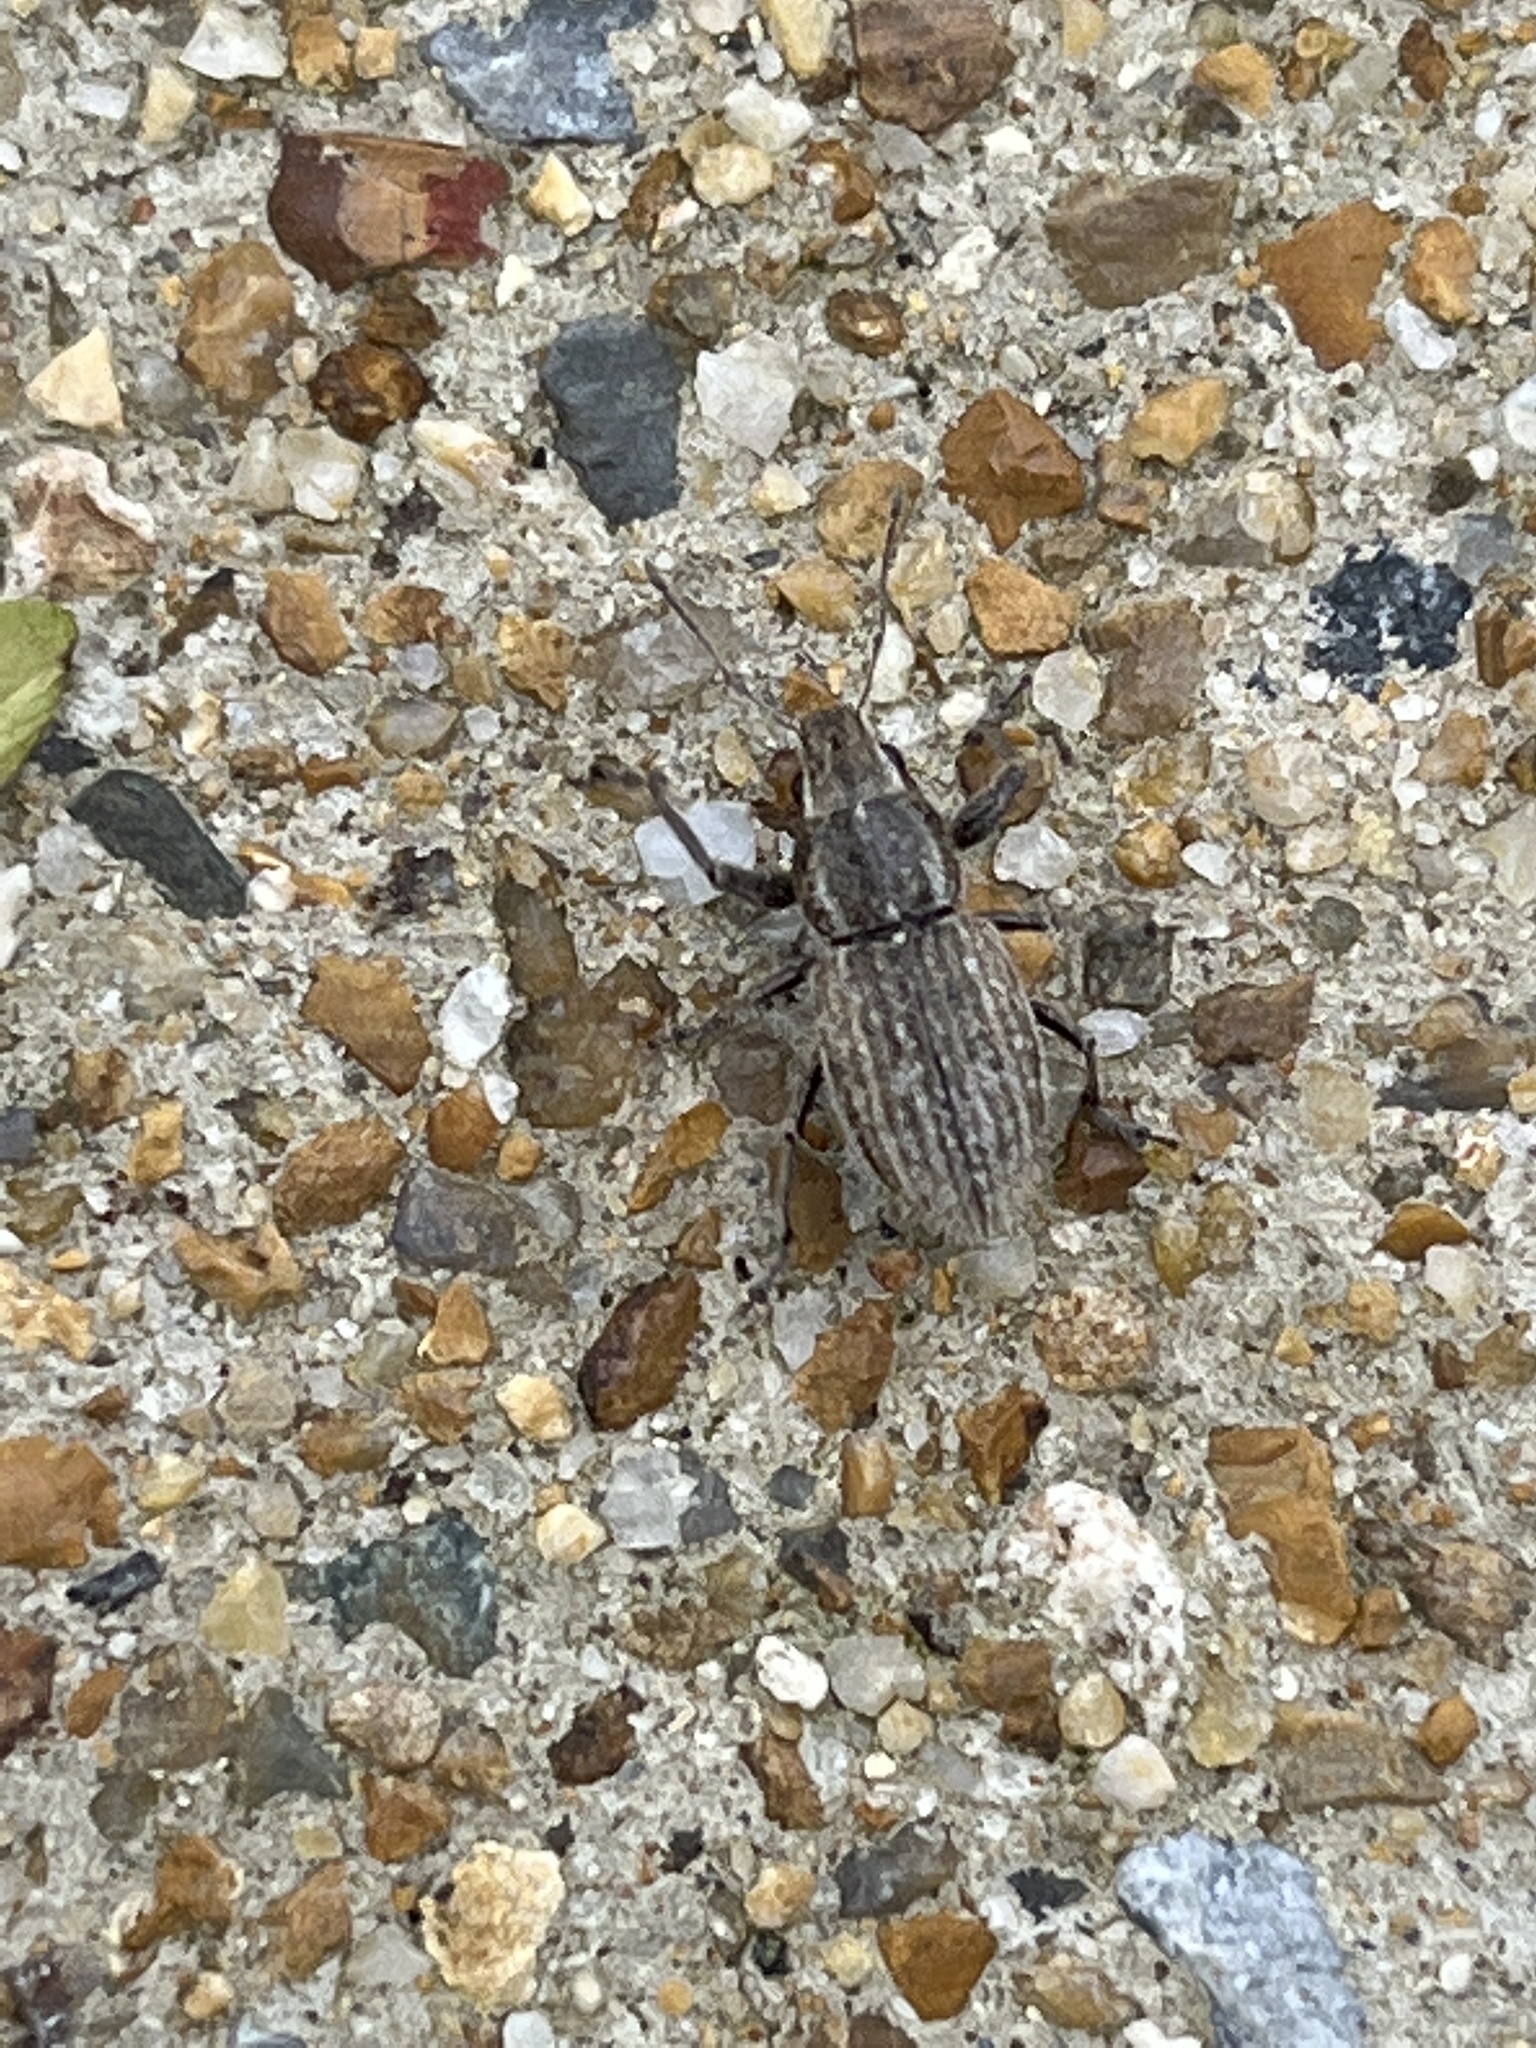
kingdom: Animalia
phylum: Arthropoda
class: Insecta
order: Coleoptera
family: Curculionidae
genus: Naupactus
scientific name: Naupactus leucoloma
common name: Whitefringed beetle
